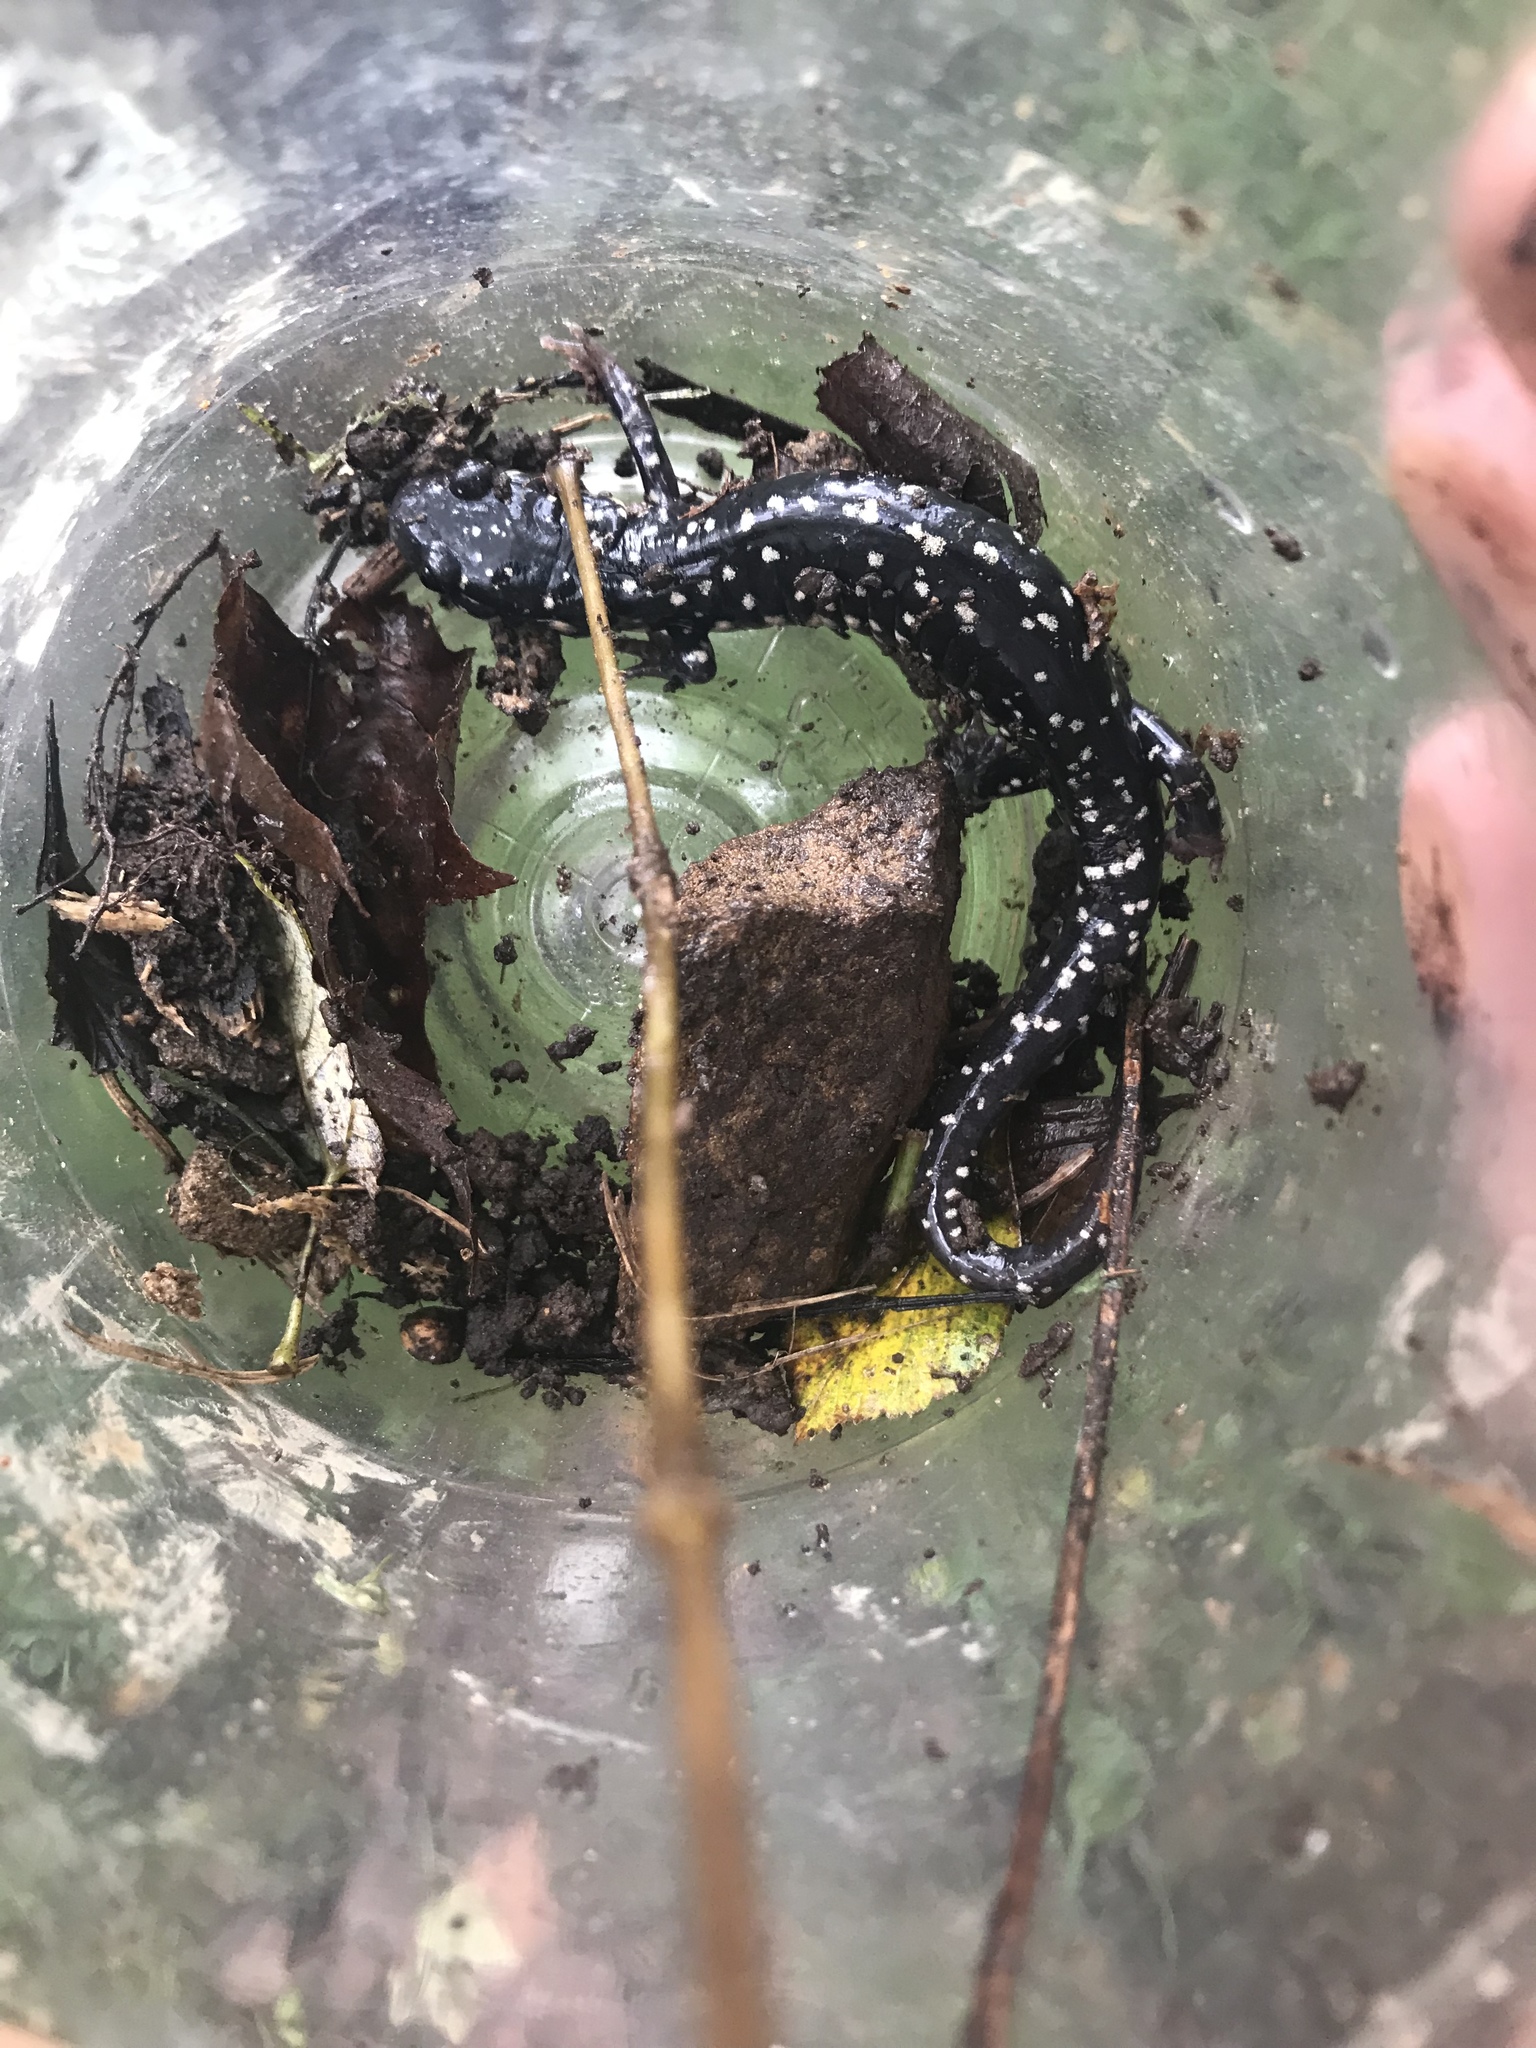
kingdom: Animalia
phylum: Chordata
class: Amphibia
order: Caudata
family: Plethodontidae
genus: Plethodon
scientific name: Plethodon glutinosus
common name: Northern slimy salamander
